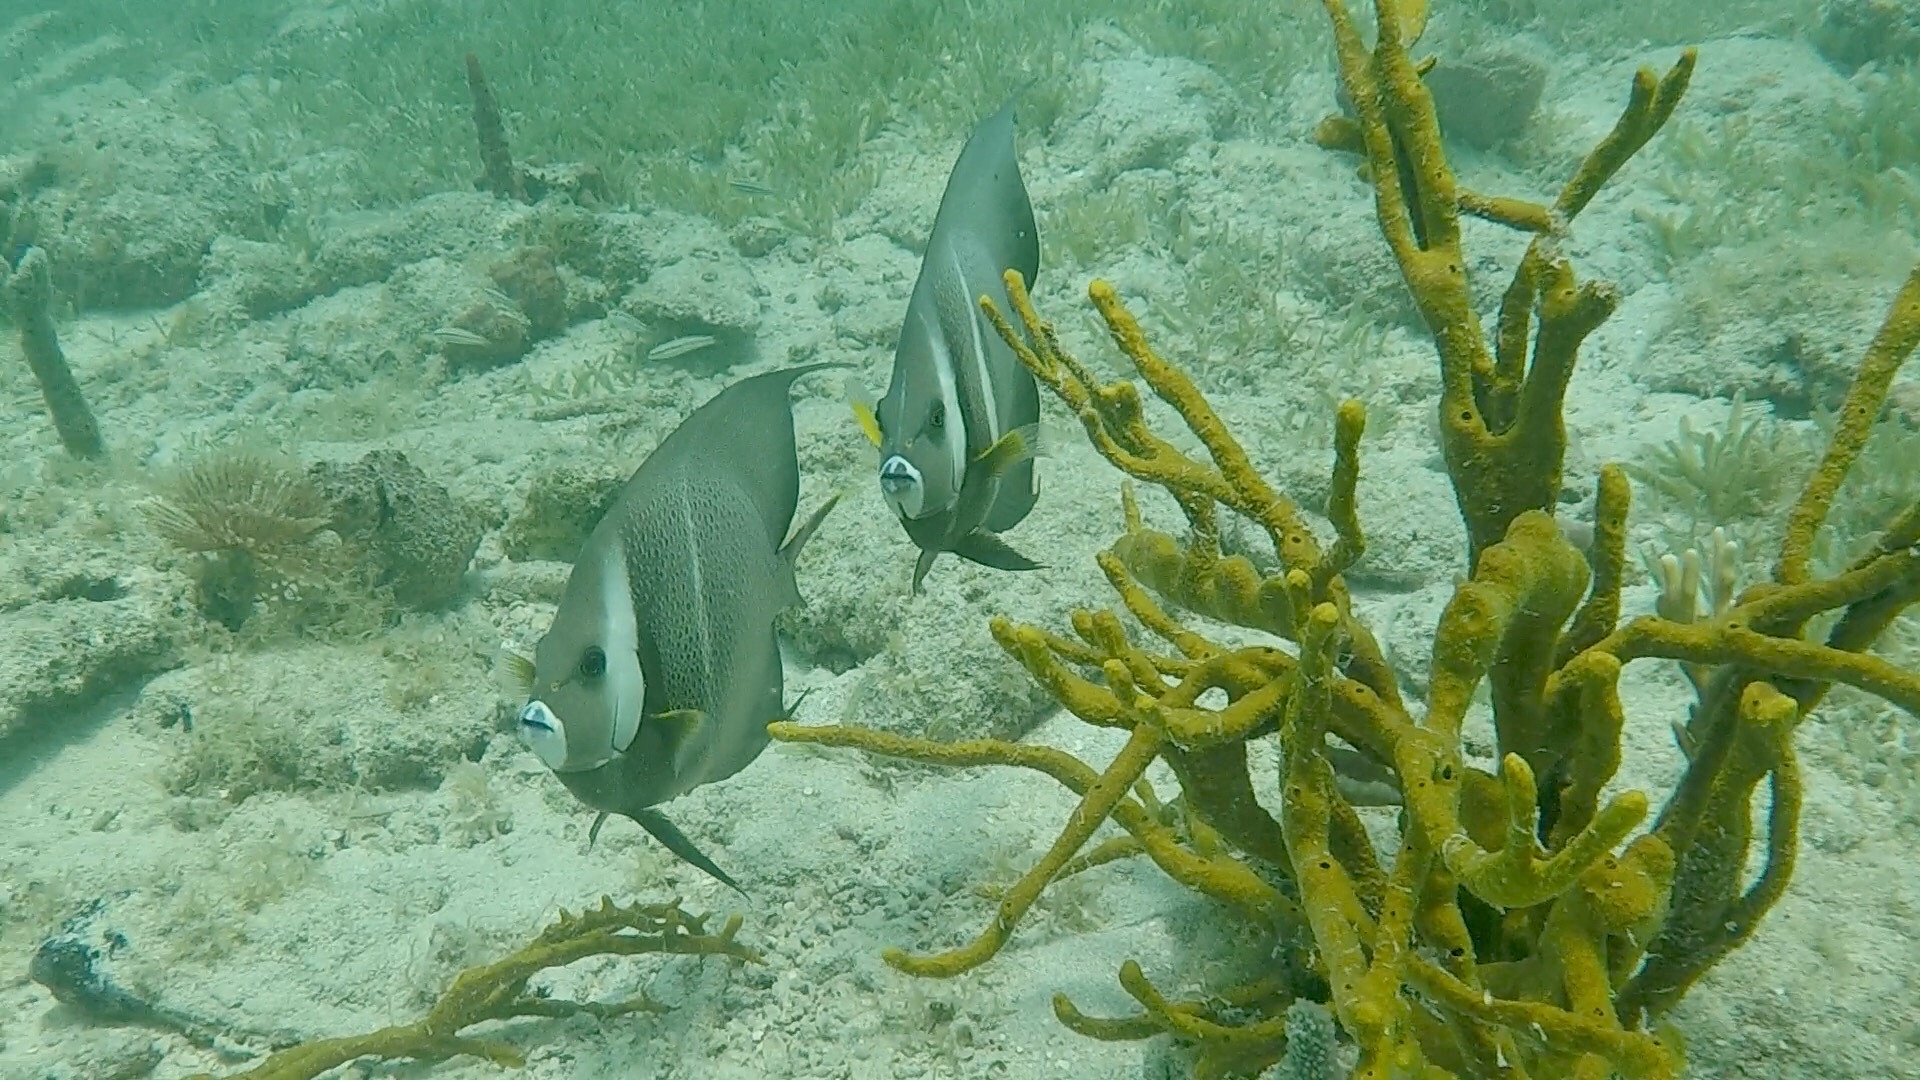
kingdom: Animalia
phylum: Chordata
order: Perciformes
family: Pomacanthidae
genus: Pomacanthus
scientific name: Pomacanthus arcuatus
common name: Gray angelfish
